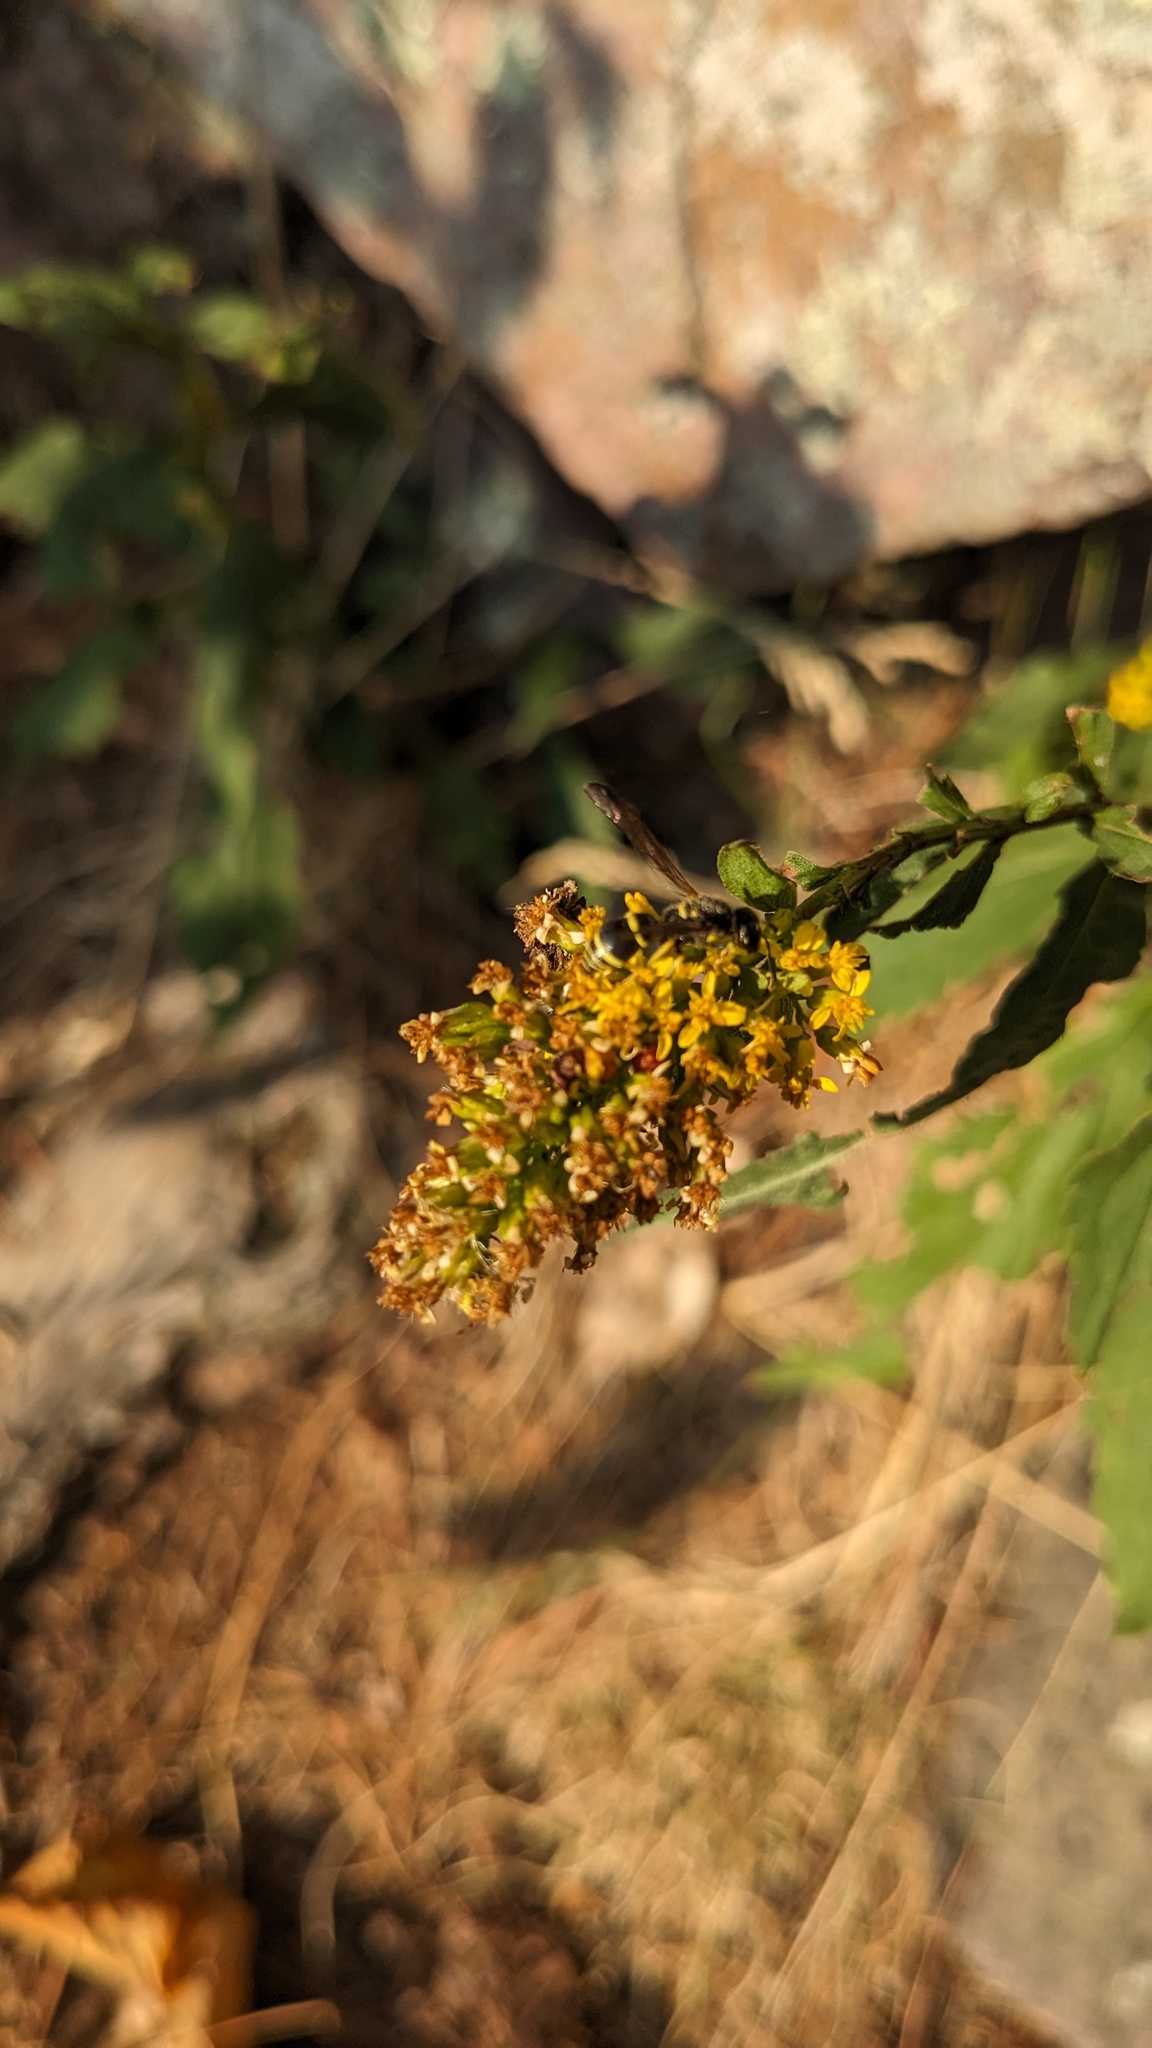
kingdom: Animalia
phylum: Arthropoda
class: Insecta
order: Hymenoptera
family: Vespidae
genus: Ancistrocerus
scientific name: Ancistrocerus adiabatus
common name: Bramble mason wasp
